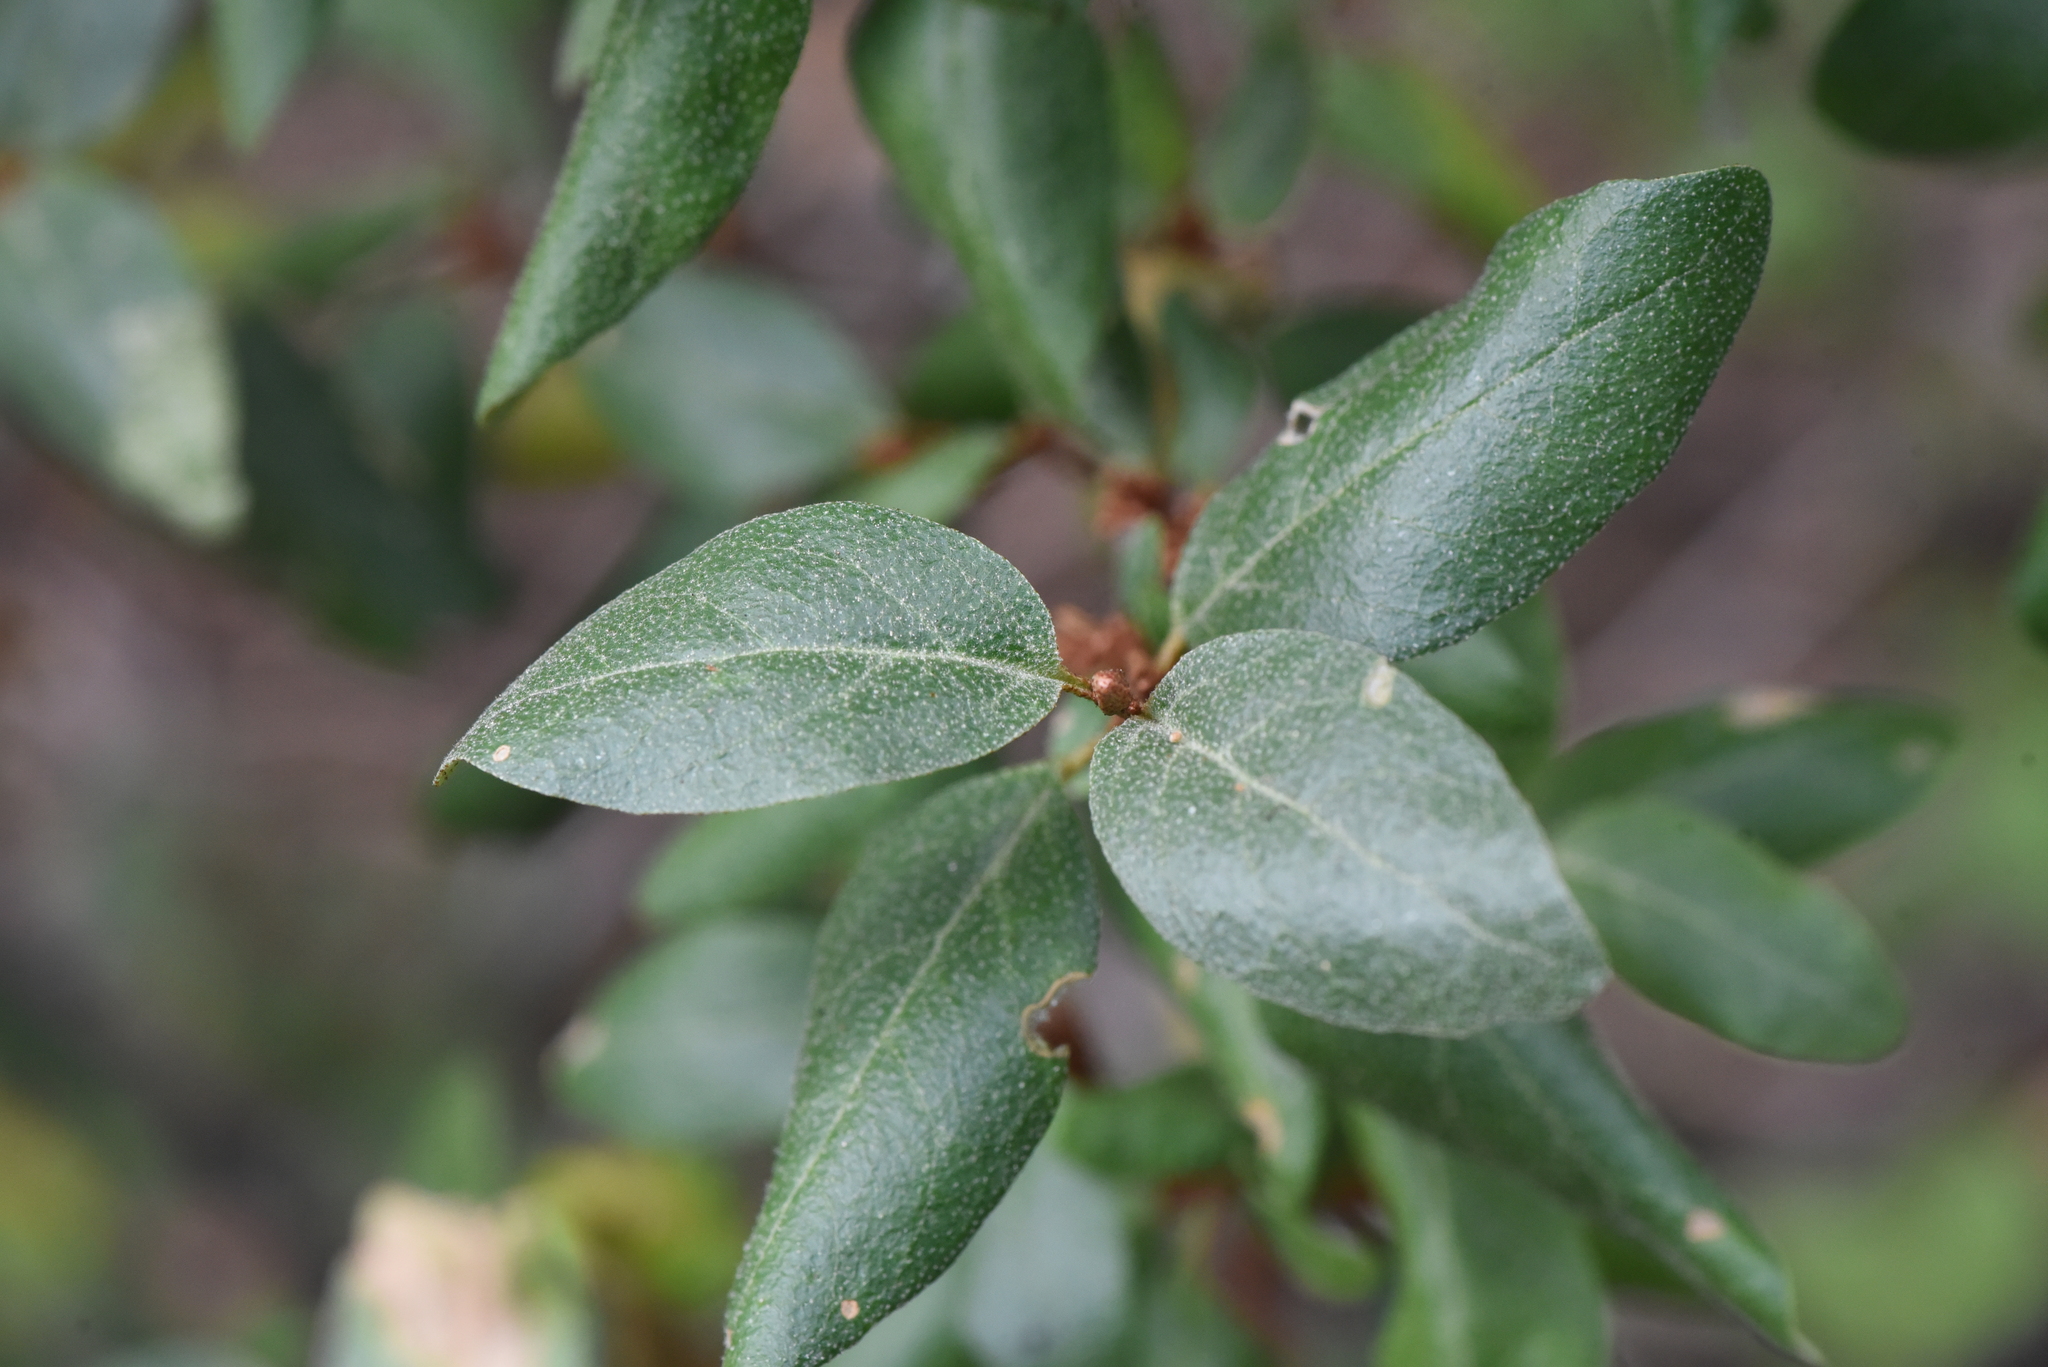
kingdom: Plantae
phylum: Tracheophyta
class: Magnoliopsida
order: Rosales
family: Elaeagnaceae
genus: Shepherdia
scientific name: Shepherdia canadensis
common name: Soapberry
